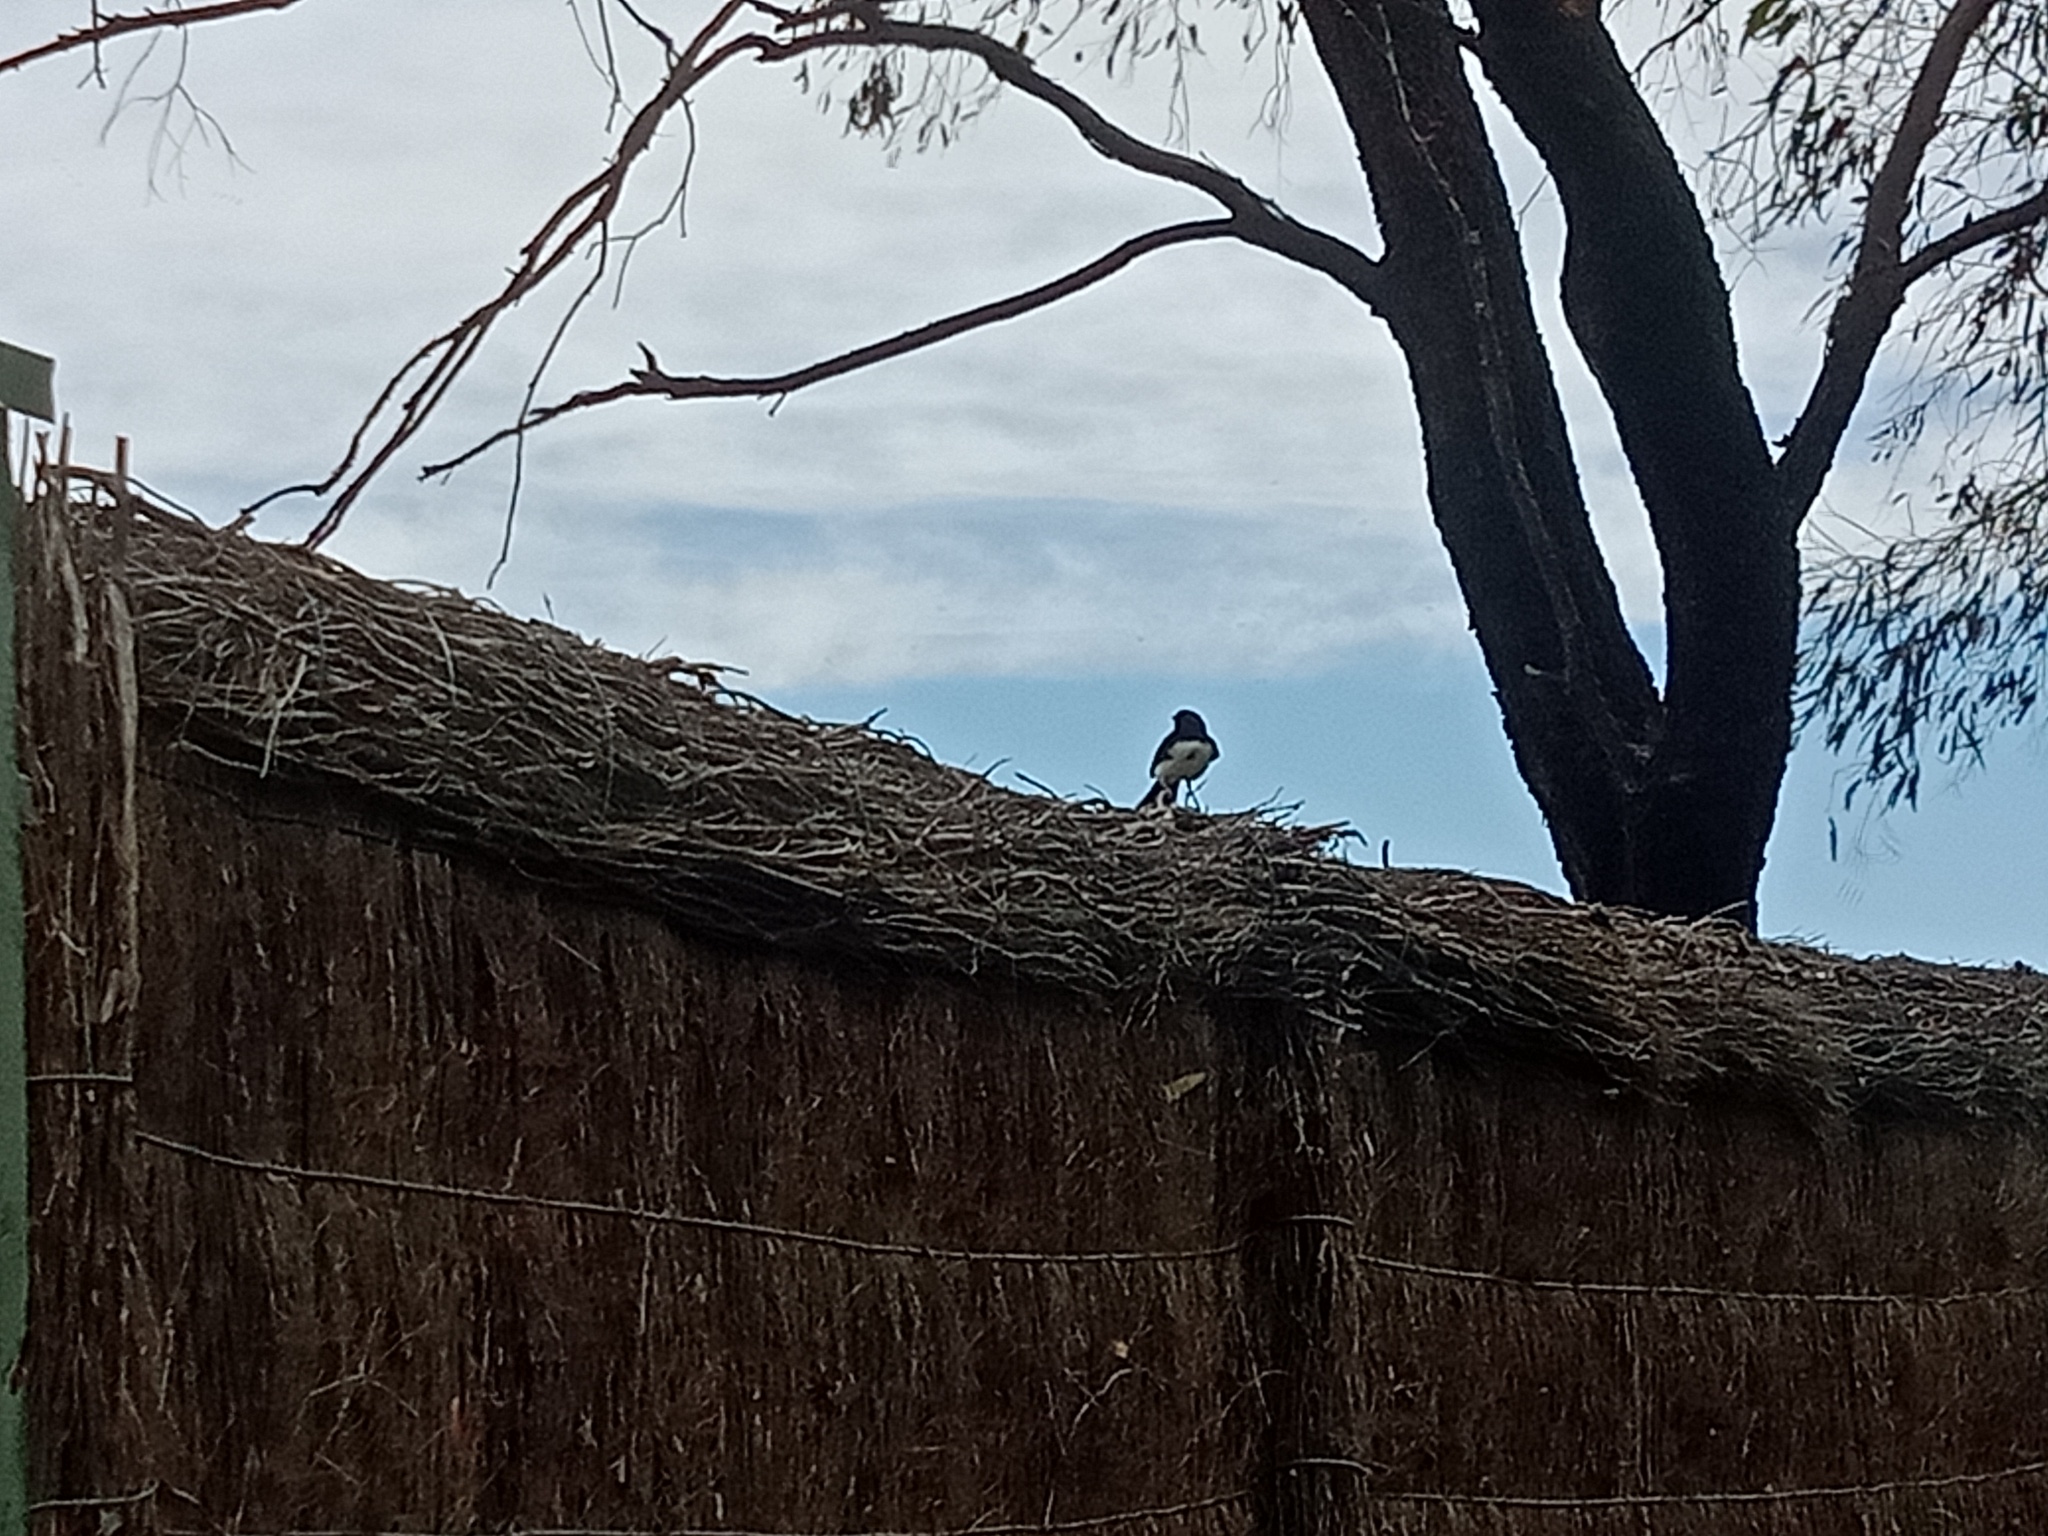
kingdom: Animalia
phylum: Chordata
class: Aves
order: Passeriformes
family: Rhipiduridae
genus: Rhipidura
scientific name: Rhipidura leucophrys
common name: Willie wagtail
